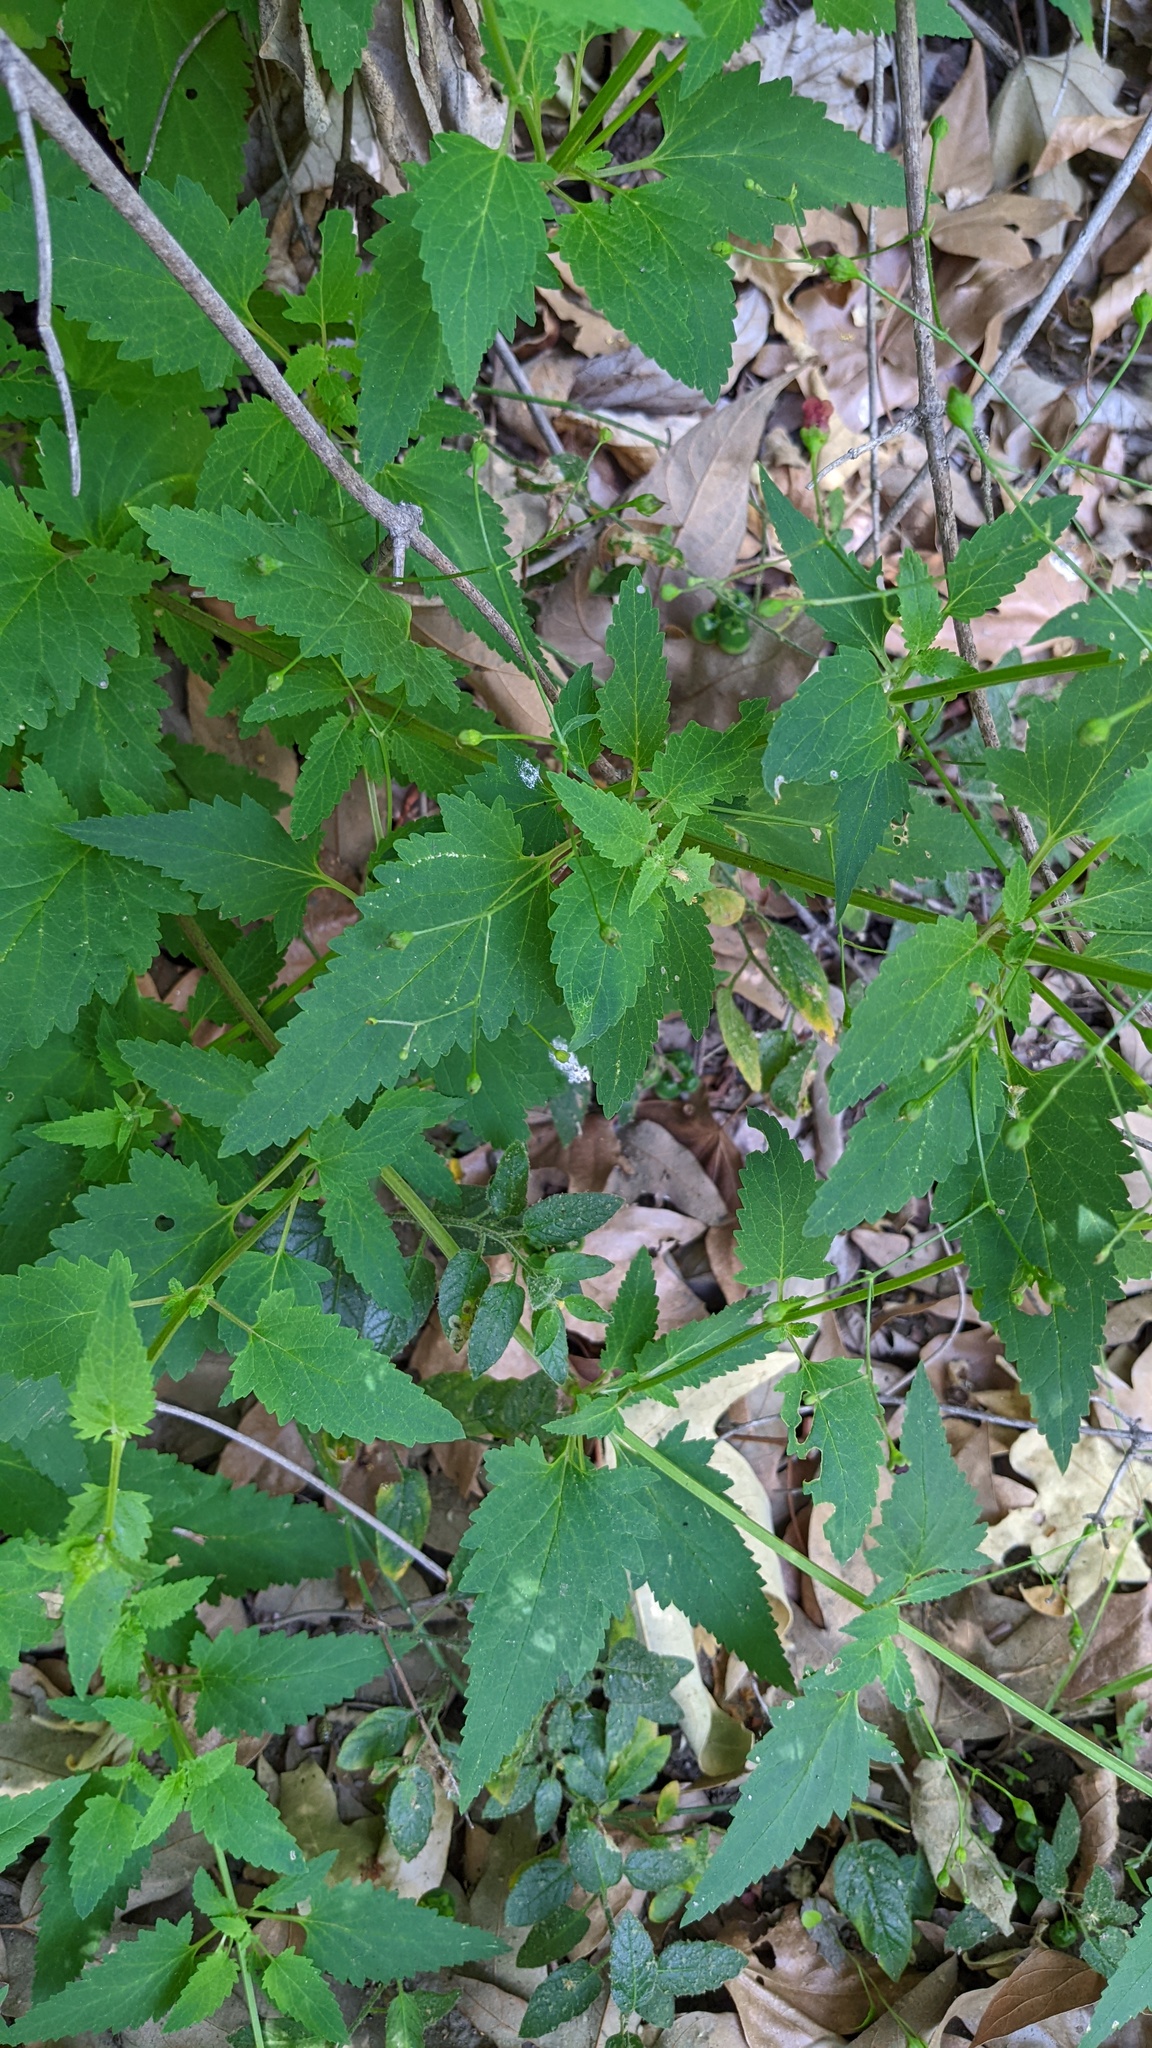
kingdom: Plantae
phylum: Tracheophyta
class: Magnoliopsida
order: Lamiales
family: Scrophulariaceae
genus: Scrophularia
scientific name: Scrophularia californica
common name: California figwort
